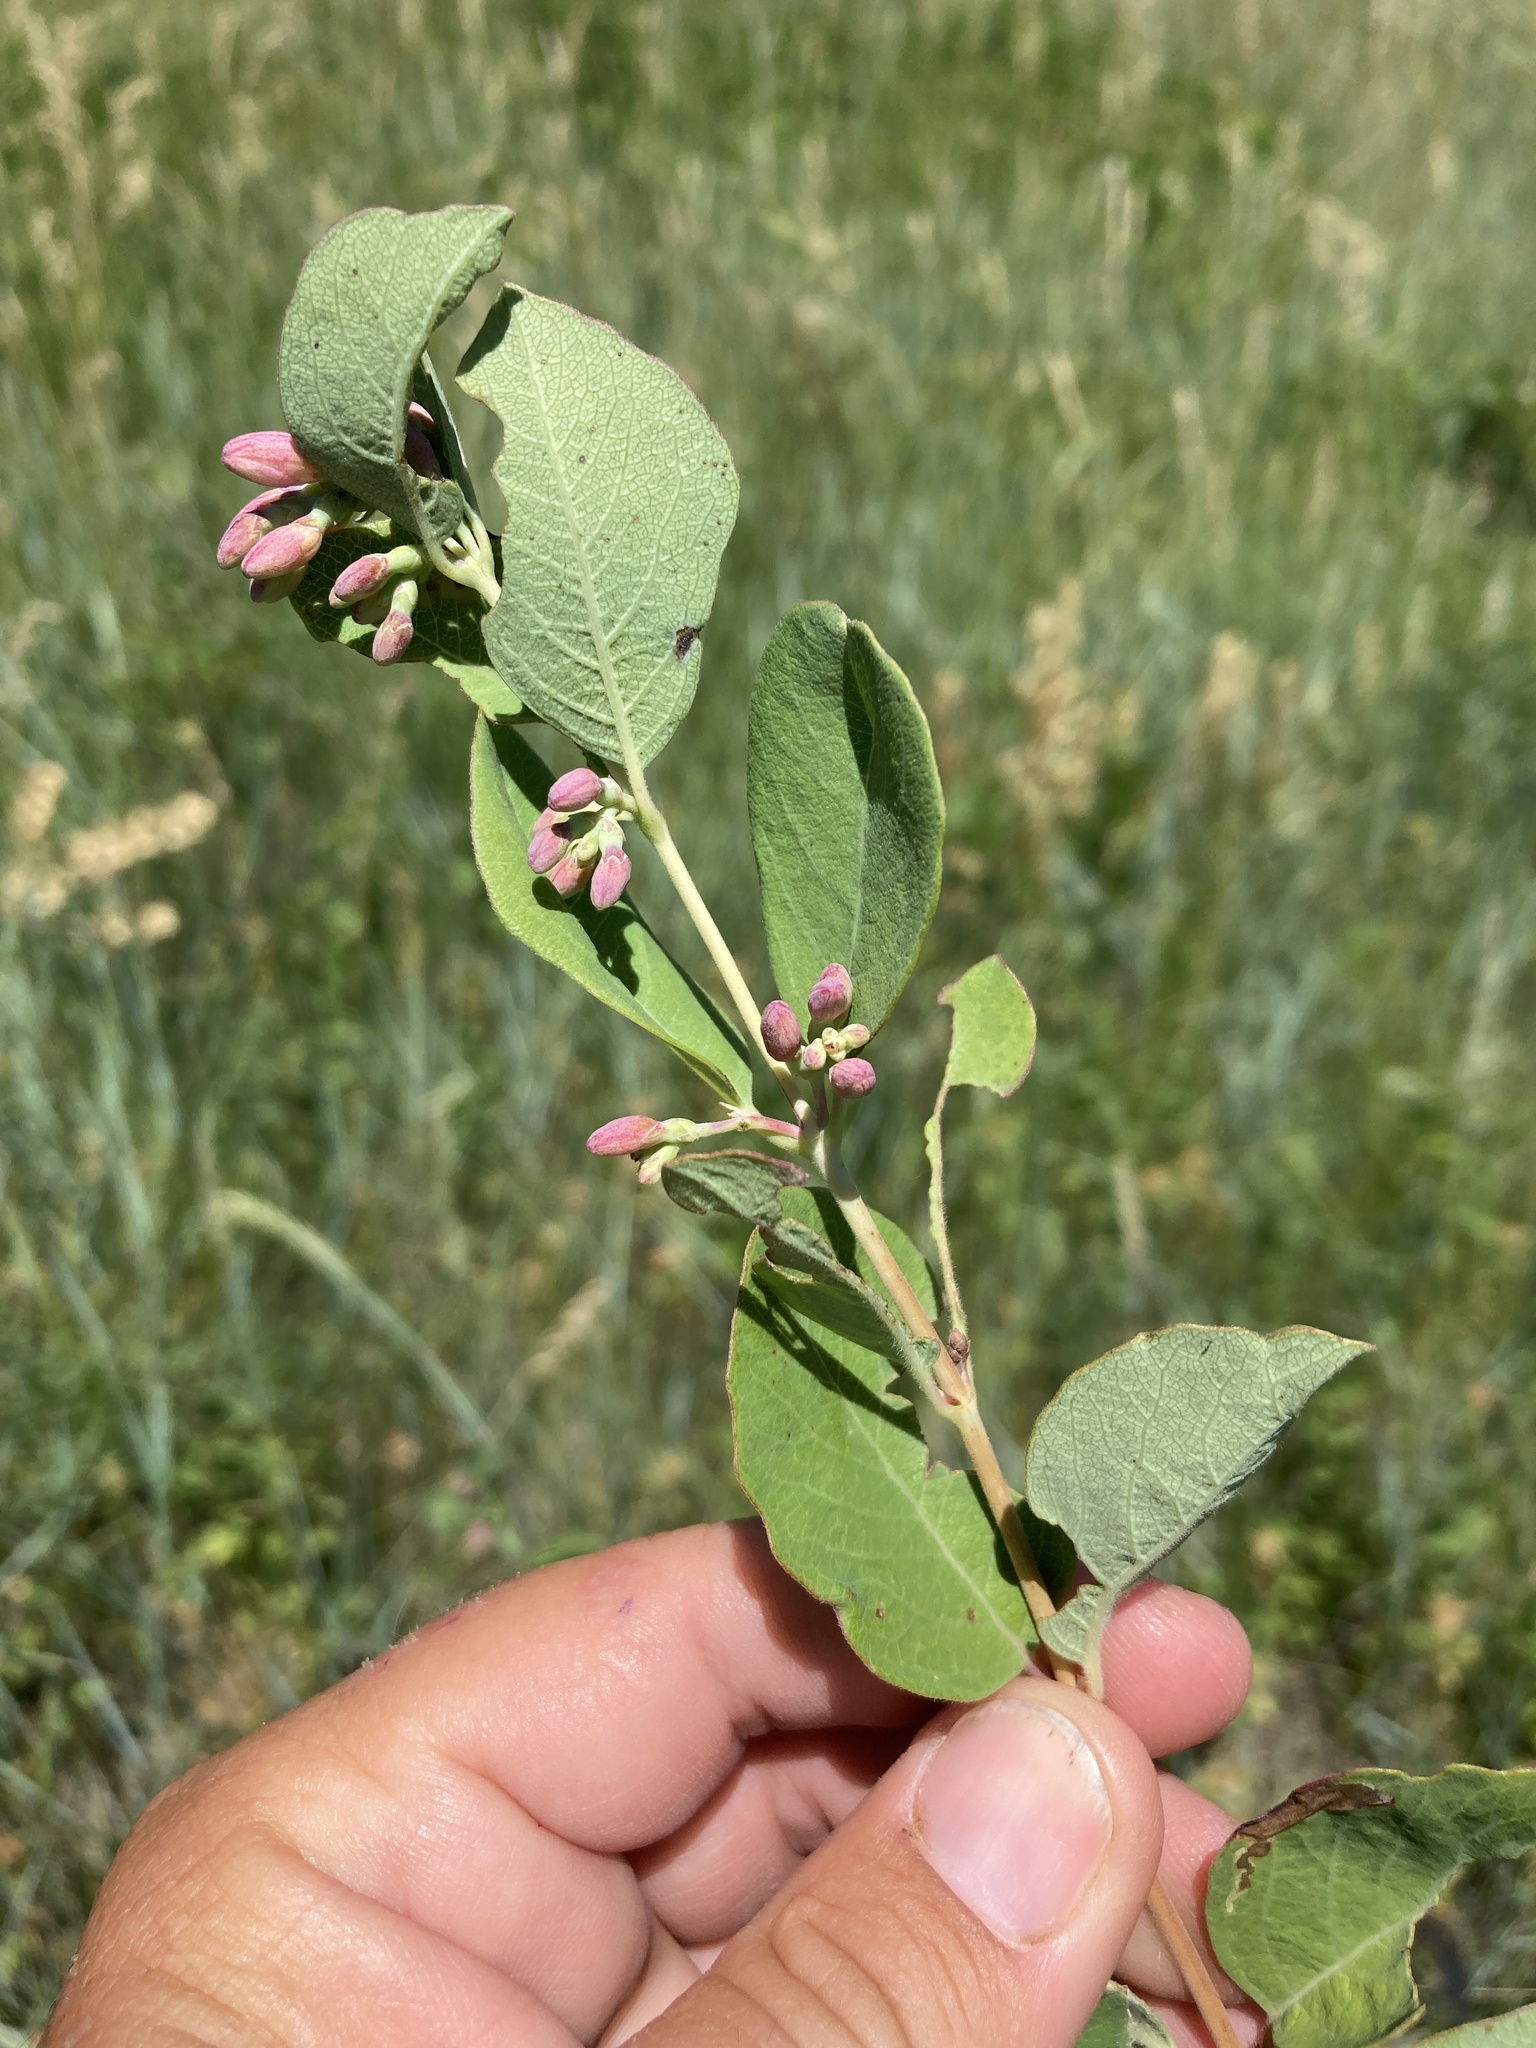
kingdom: Plantae
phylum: Tracheophyta
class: Magnoliopsida
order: Dipsacales
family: Caprifoliaceae
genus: Symphoricarpos
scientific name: Symphoricarpos occidentalis
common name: Wolfberry
